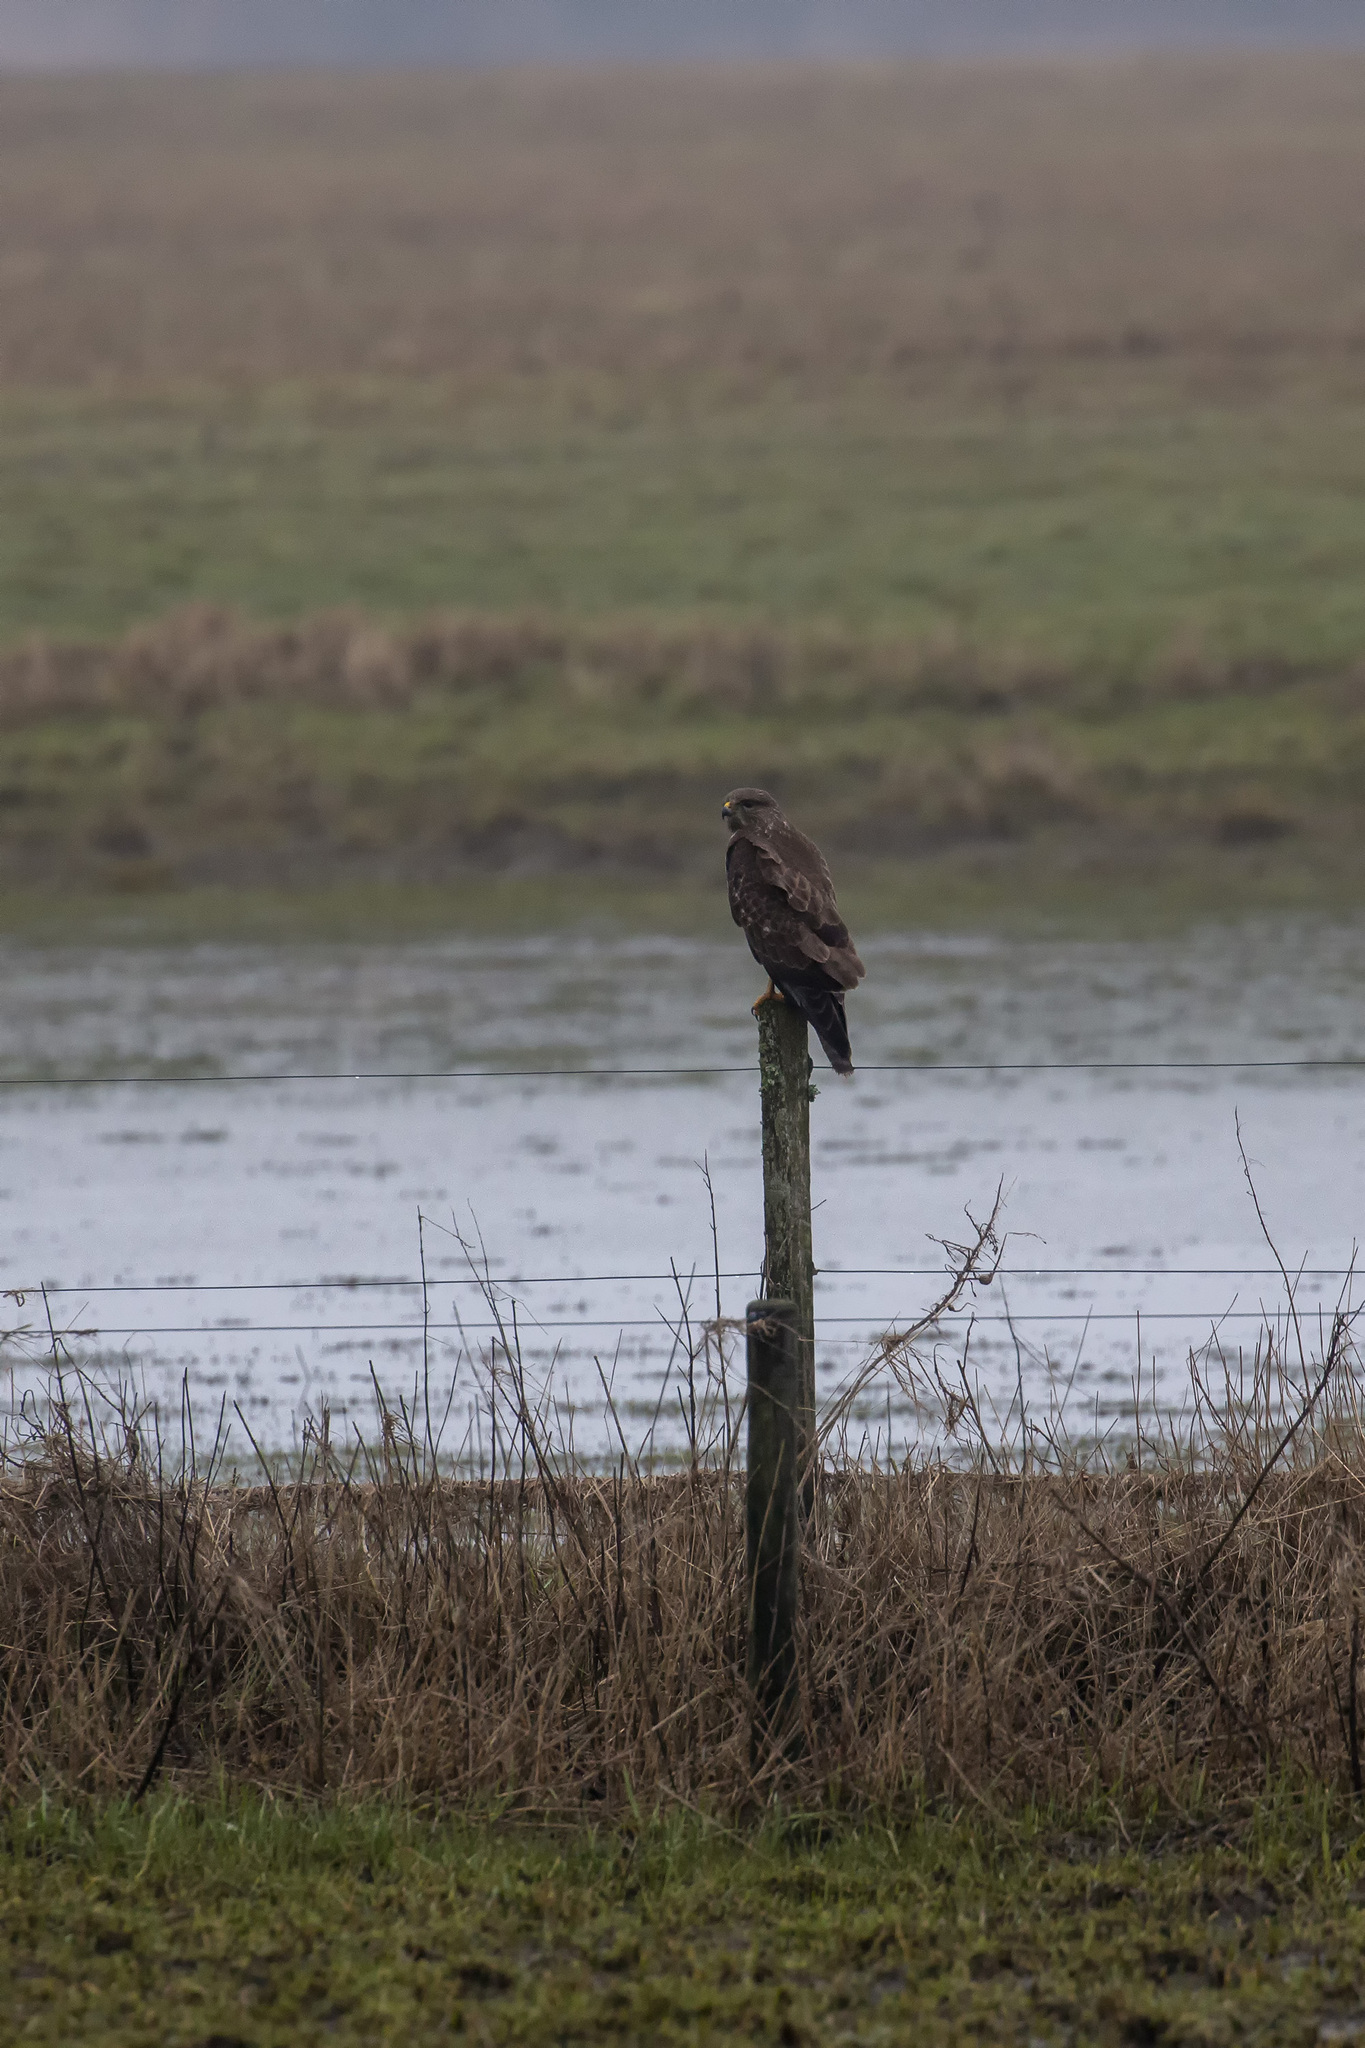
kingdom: Animalia
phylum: Chordata
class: Aves
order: Accipitriformes
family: Accipitridae
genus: Buteo
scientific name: Buteo buteo
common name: Common buzzard
